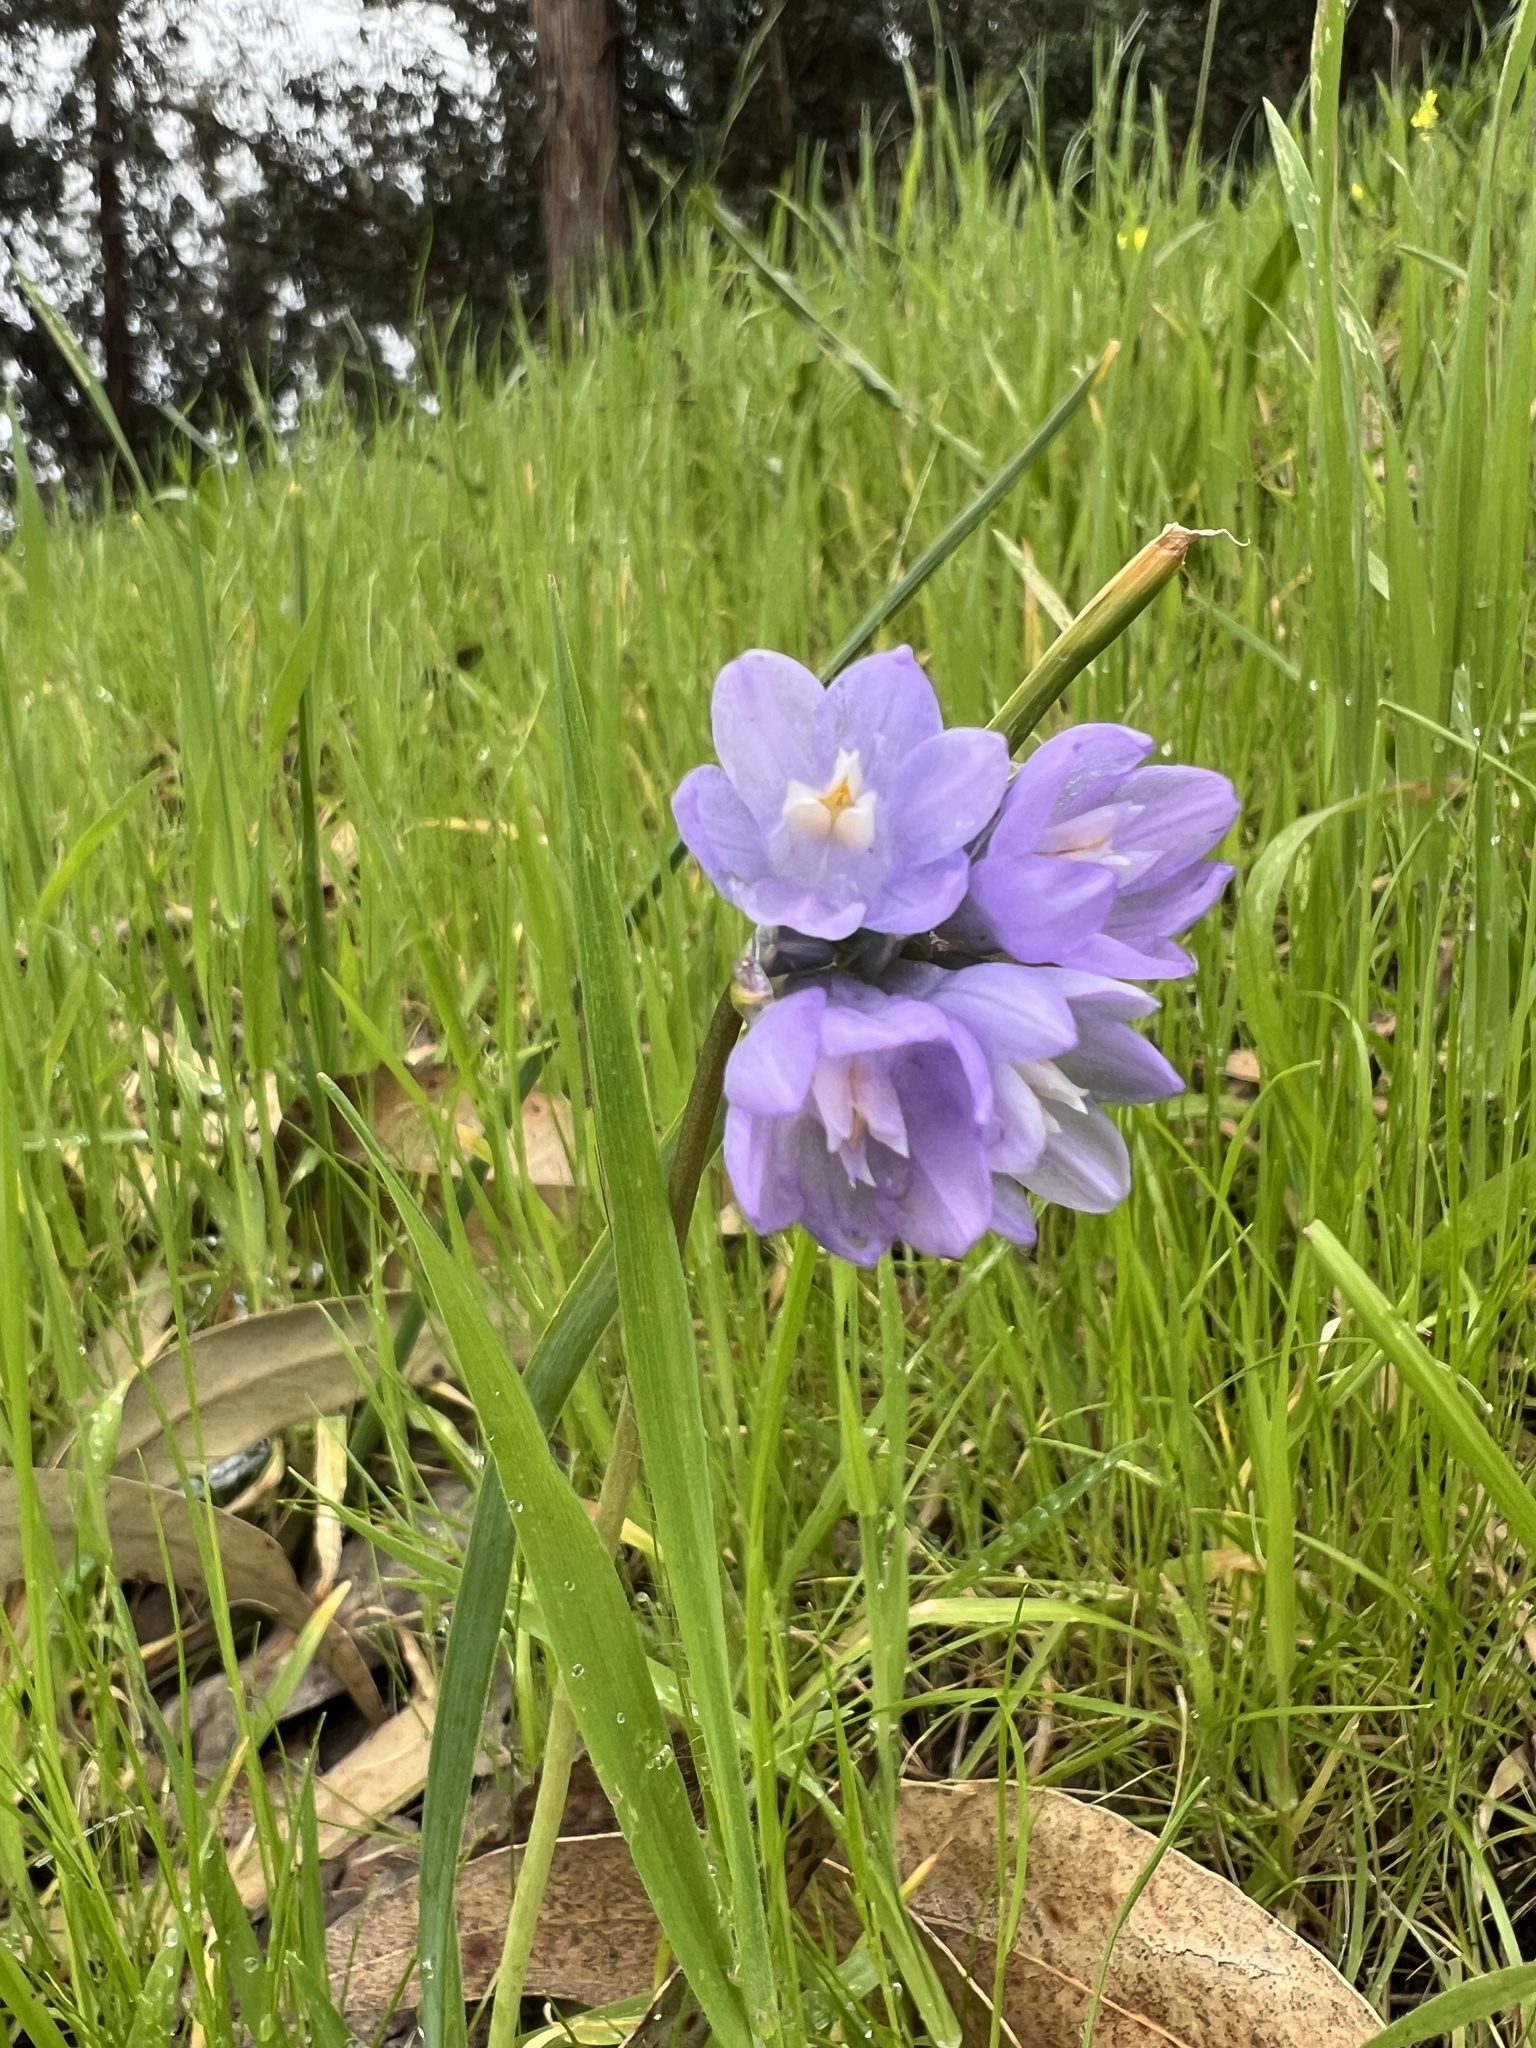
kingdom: Plantae
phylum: Tracheophyta
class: Liliopsida
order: Asparagales
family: Asparagaceae
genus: Dipterostemon
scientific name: Dipterostemon capitatus
